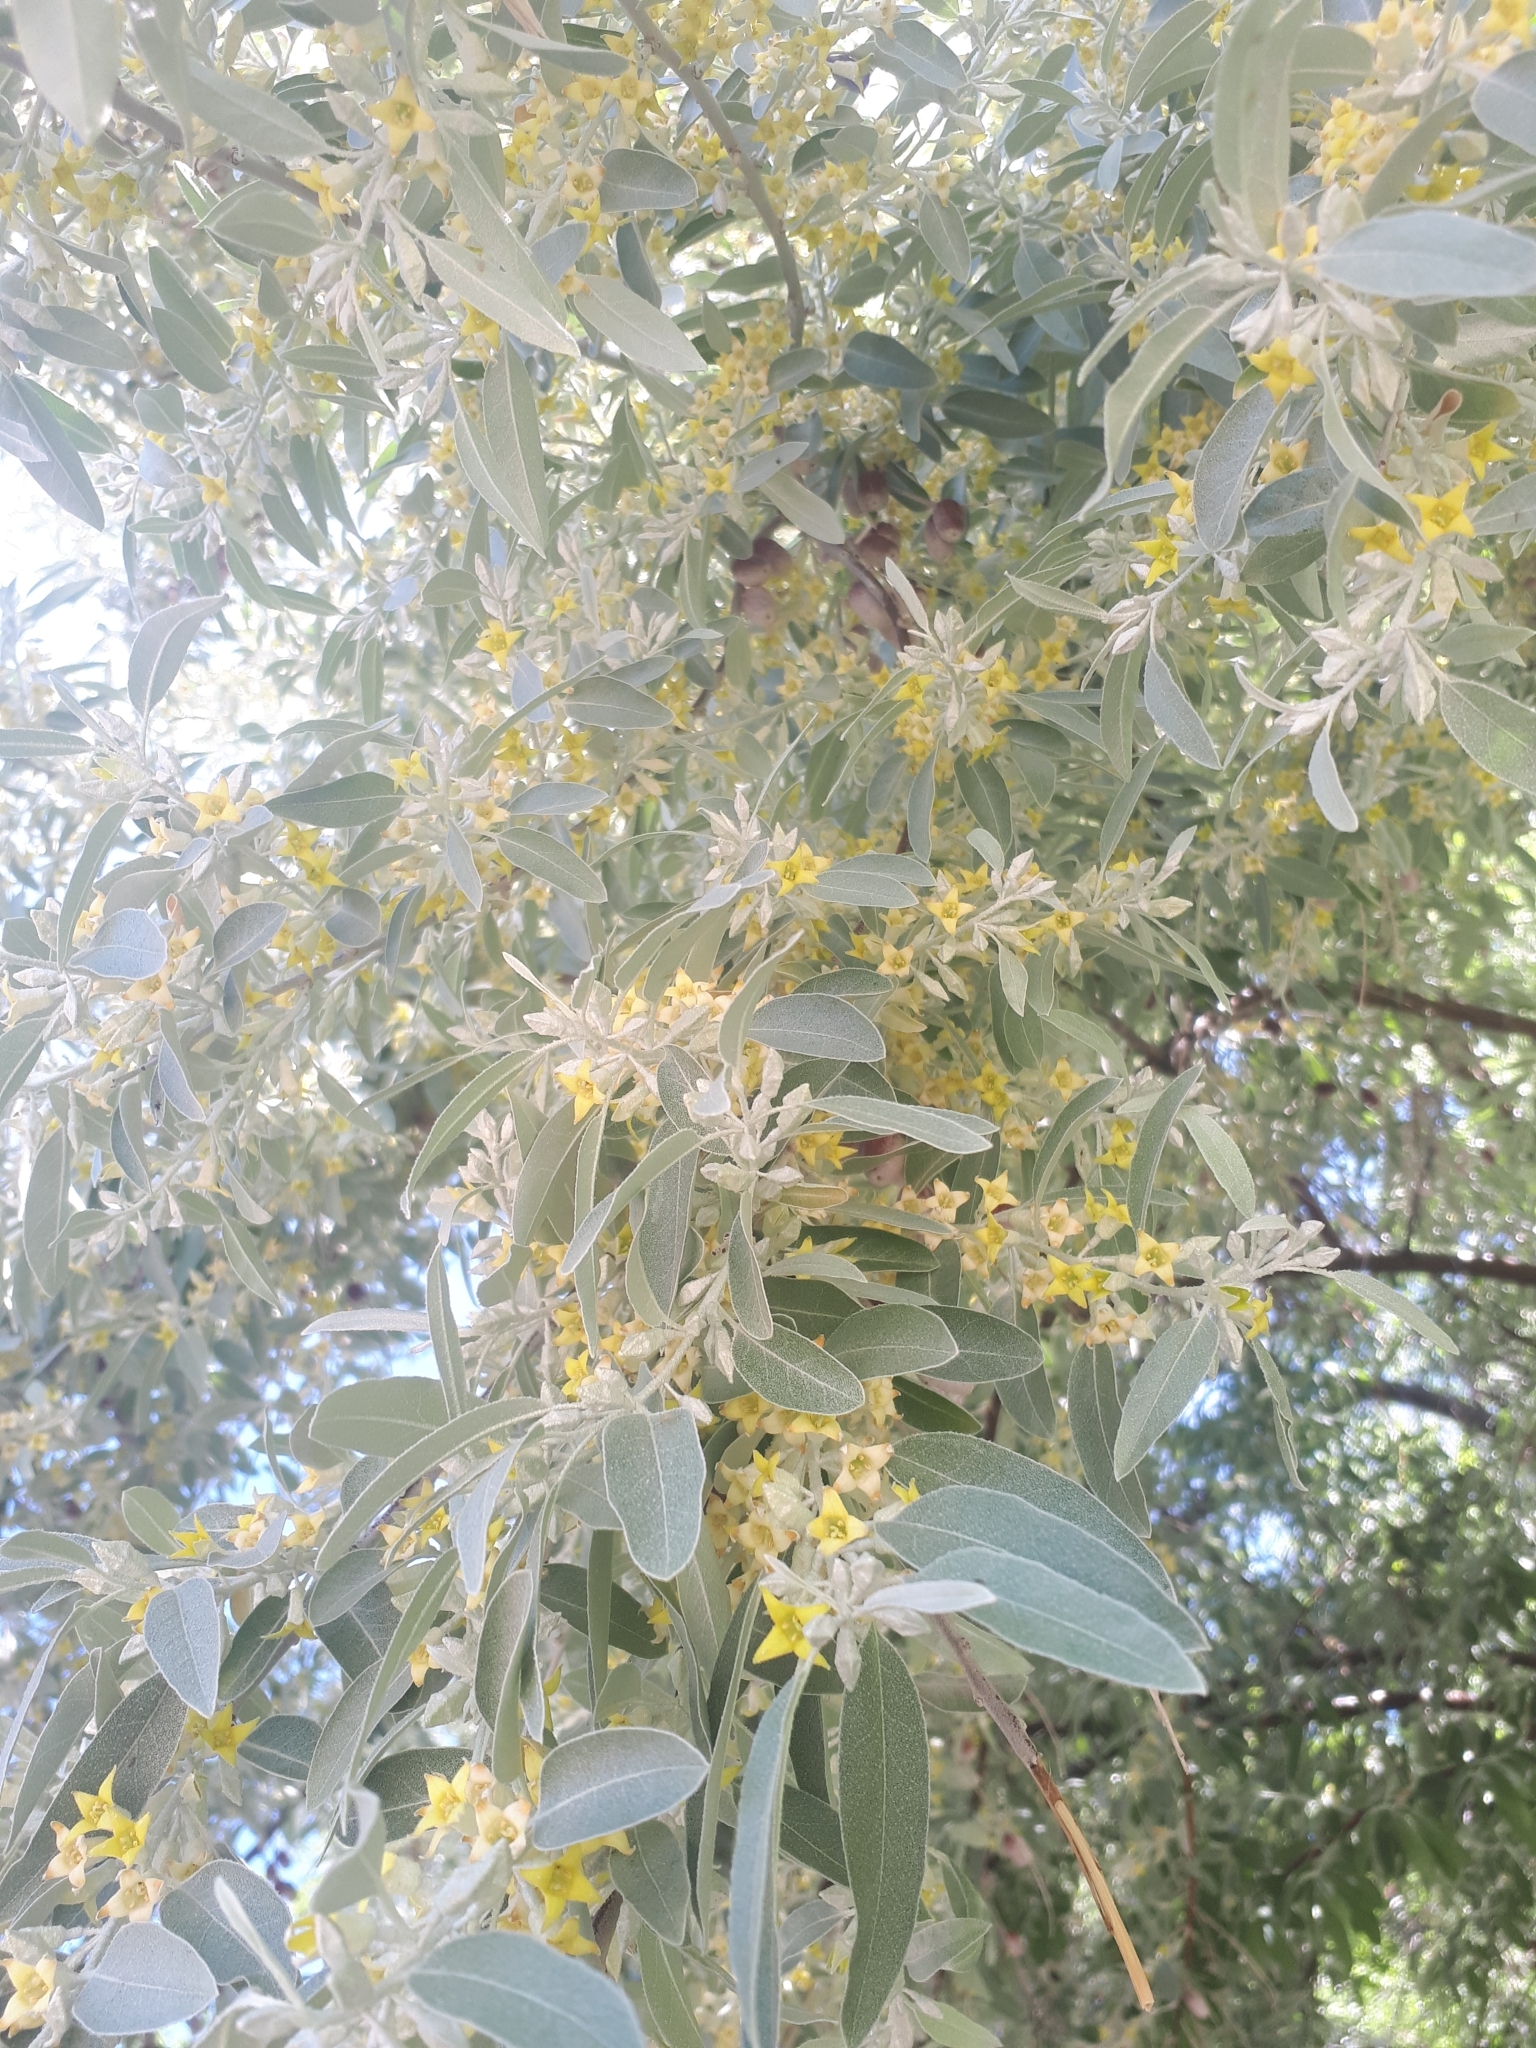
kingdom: Plantae
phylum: Tracheophyta
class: Magnoliopsida
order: Rosales
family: Elaeagnaceae
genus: Elaeagnus
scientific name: Elaeagnus angustifolia
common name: Russian olive
